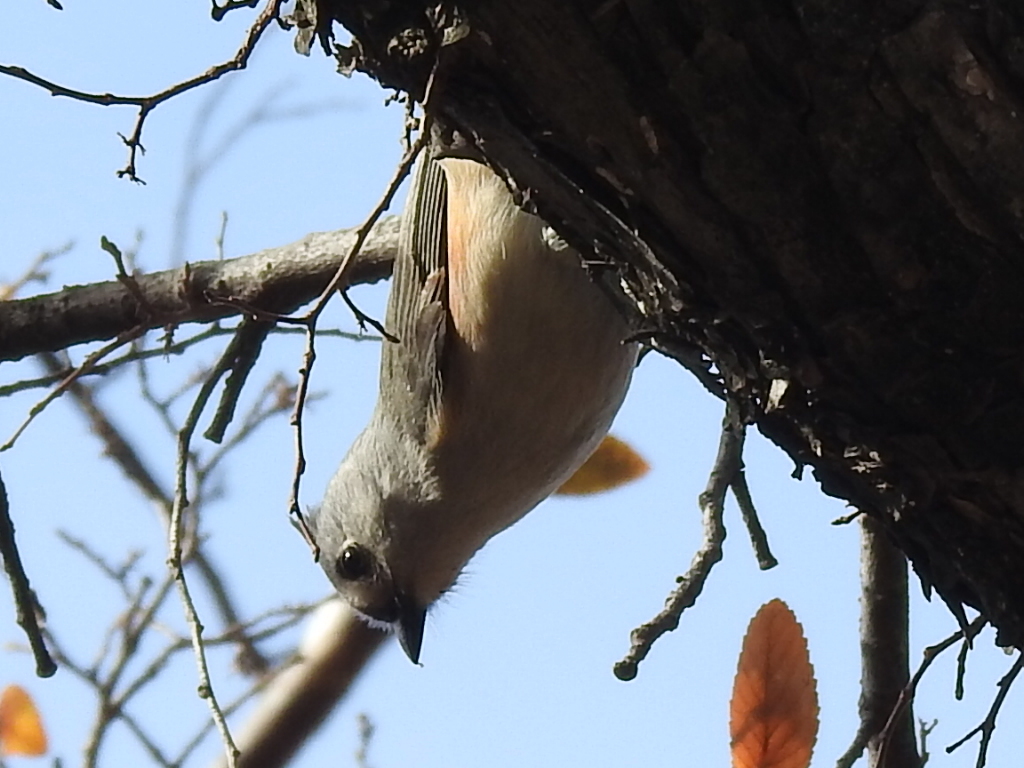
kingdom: Animalia
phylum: Chordata
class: Aves
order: Passeriformes
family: Paridae
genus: Baeolophus
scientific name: Baeolophus bicolor
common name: Tufted titmouse
